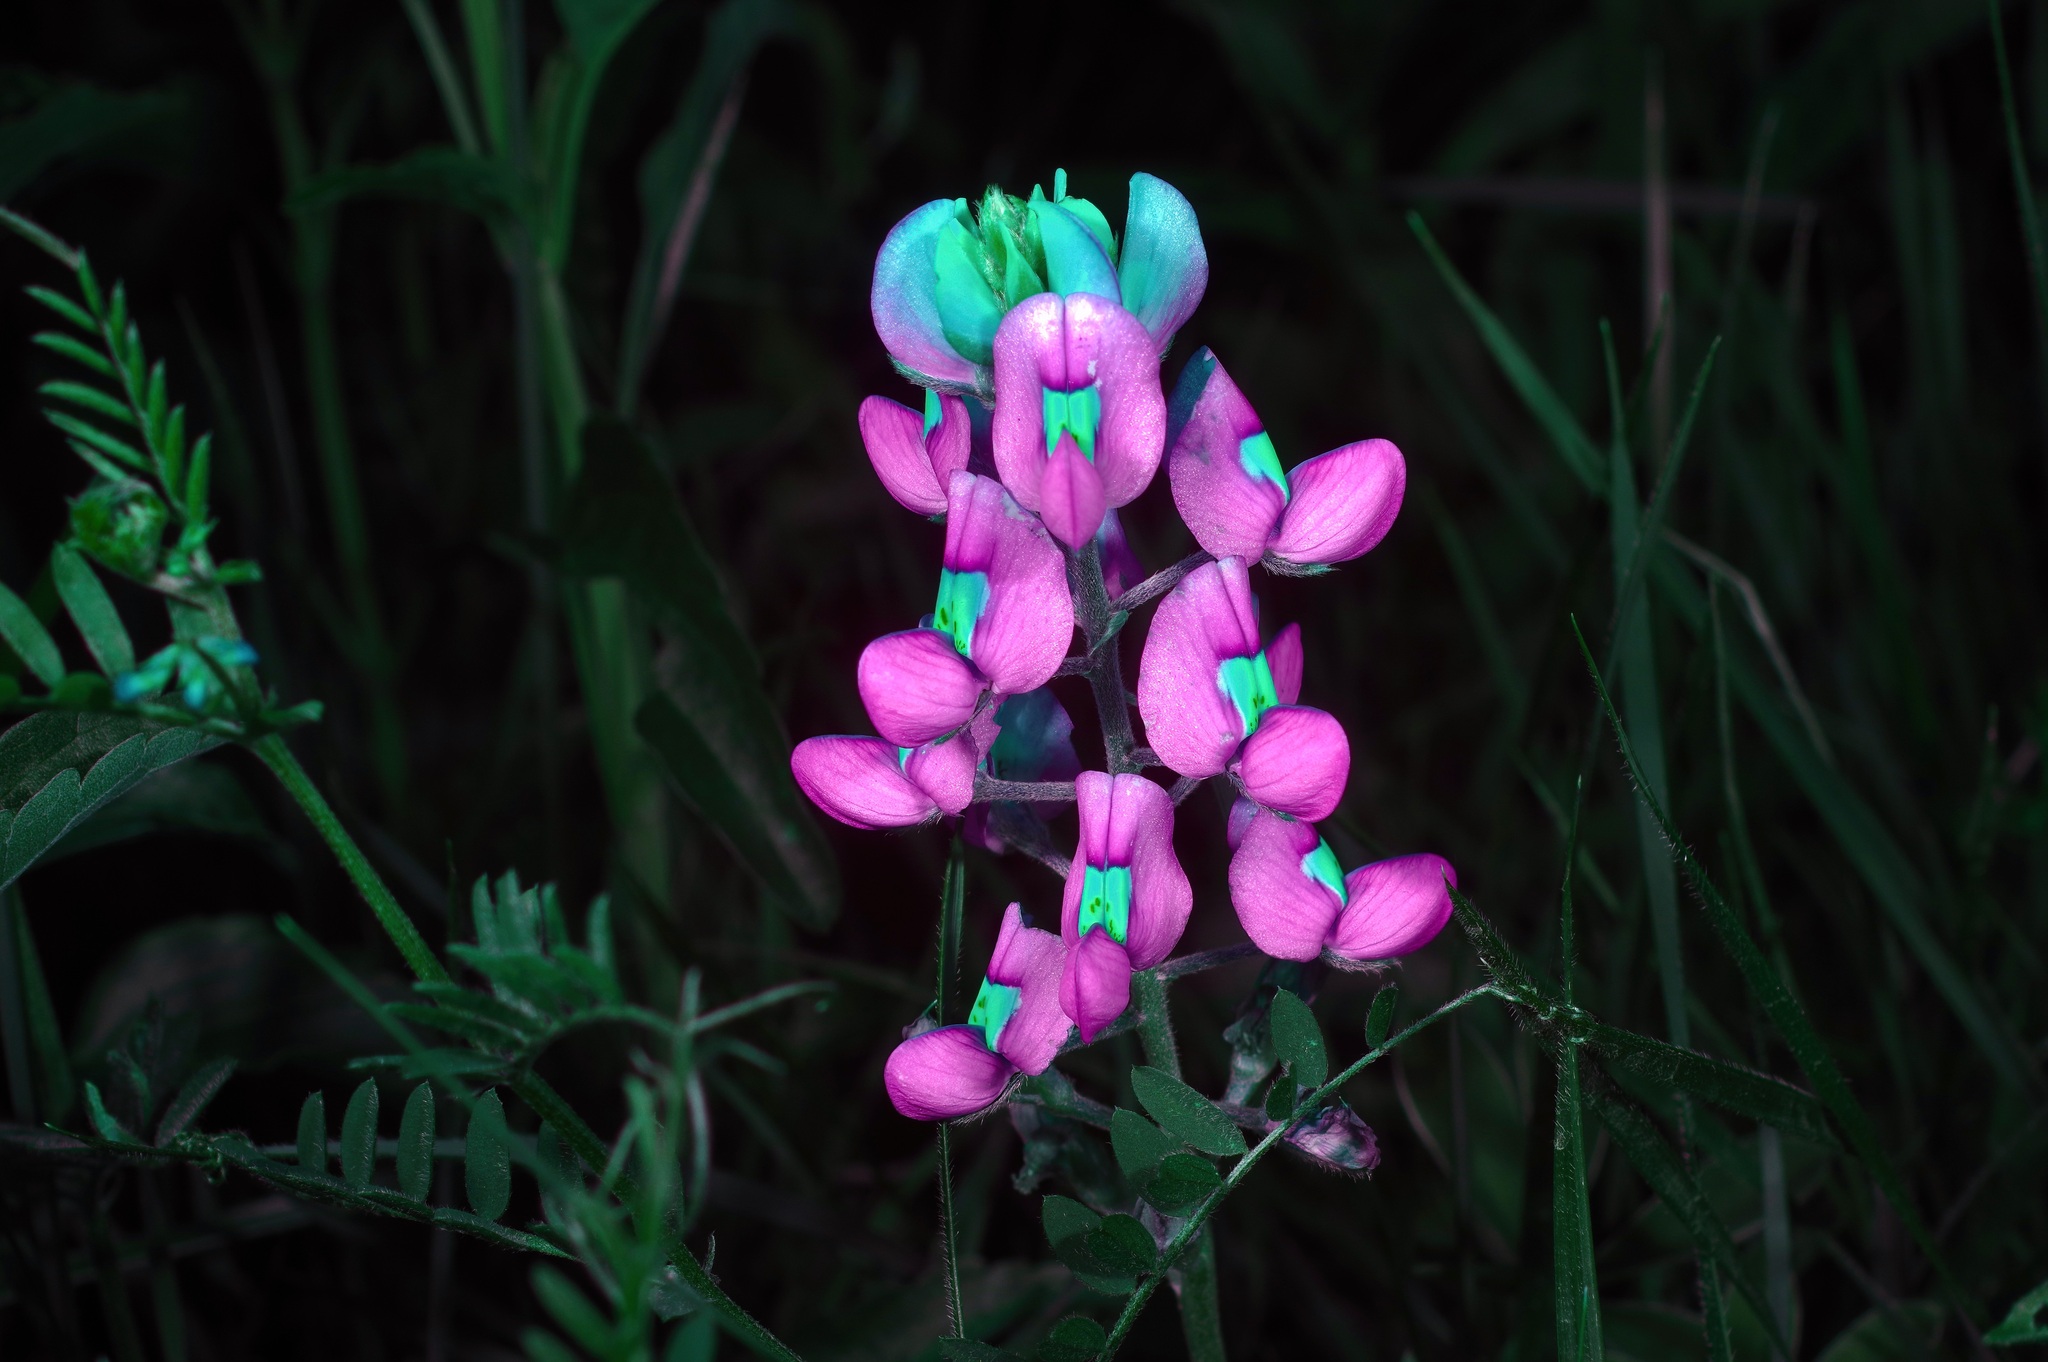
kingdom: Plantae
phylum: Tracheophyta
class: Magnoliopsida
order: Fabales
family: Fabaceae
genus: Lupinus
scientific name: Lupinus texensis
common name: Texas bluebonnet
